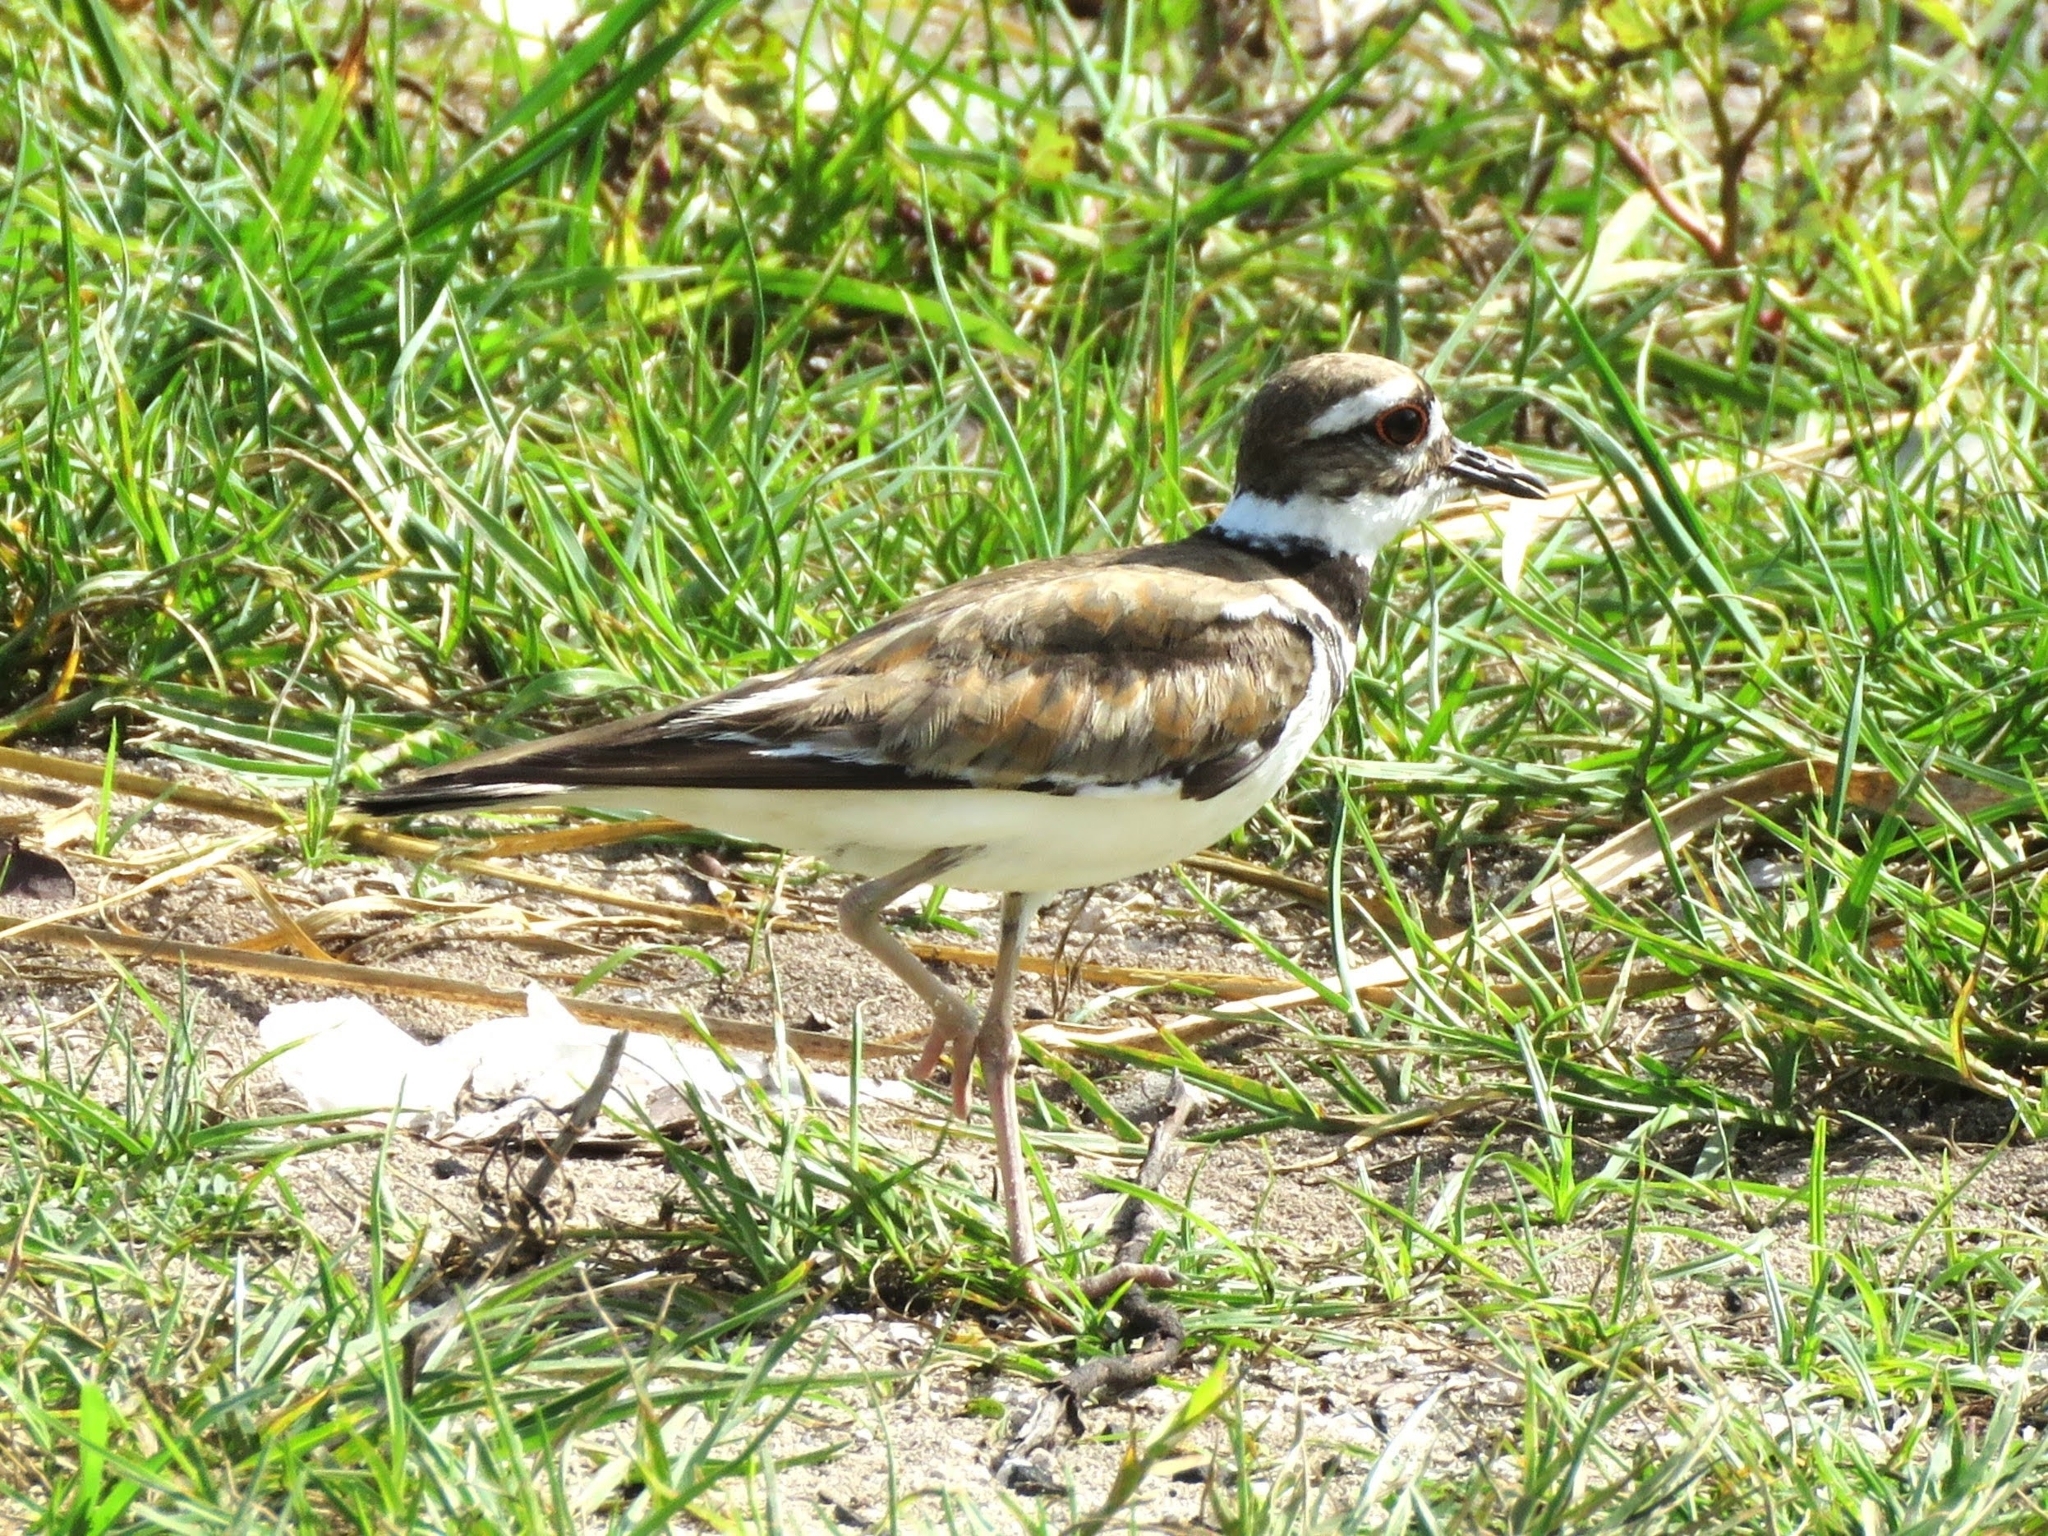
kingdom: Animalia
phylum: Chordata
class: Aves
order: Charadriiformes
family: Charadriidae
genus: Charadrius
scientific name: Charadrius vociferus
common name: Killdeer
